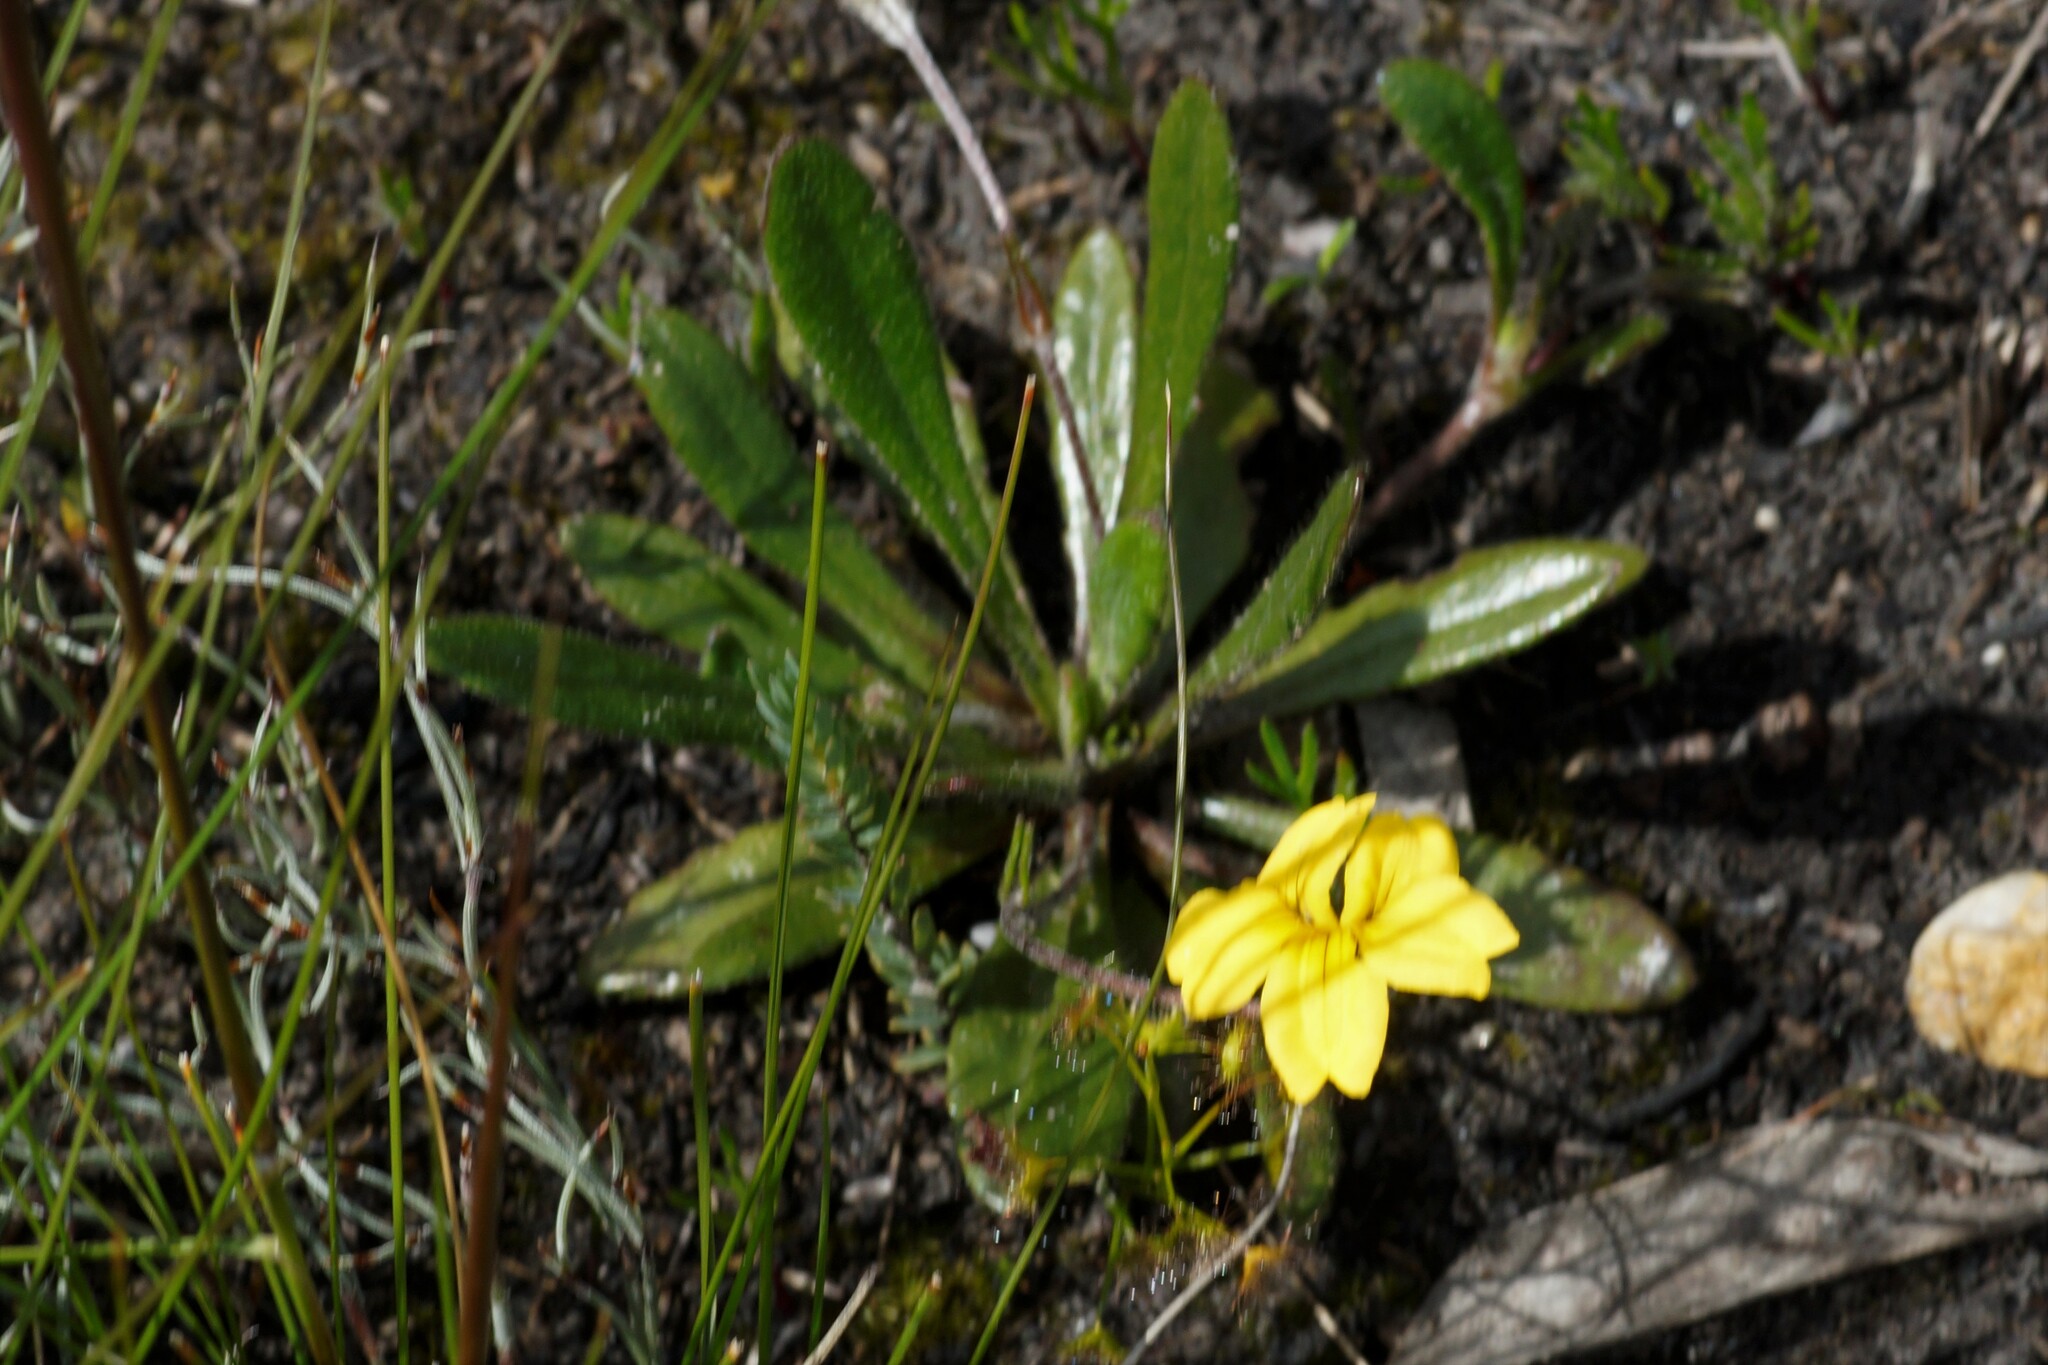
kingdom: Plantae
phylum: Tracheophyta
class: Magnoliopsida
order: Asterales
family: Goodeniaceae
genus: Goodenia
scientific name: Goodenia geniculata
